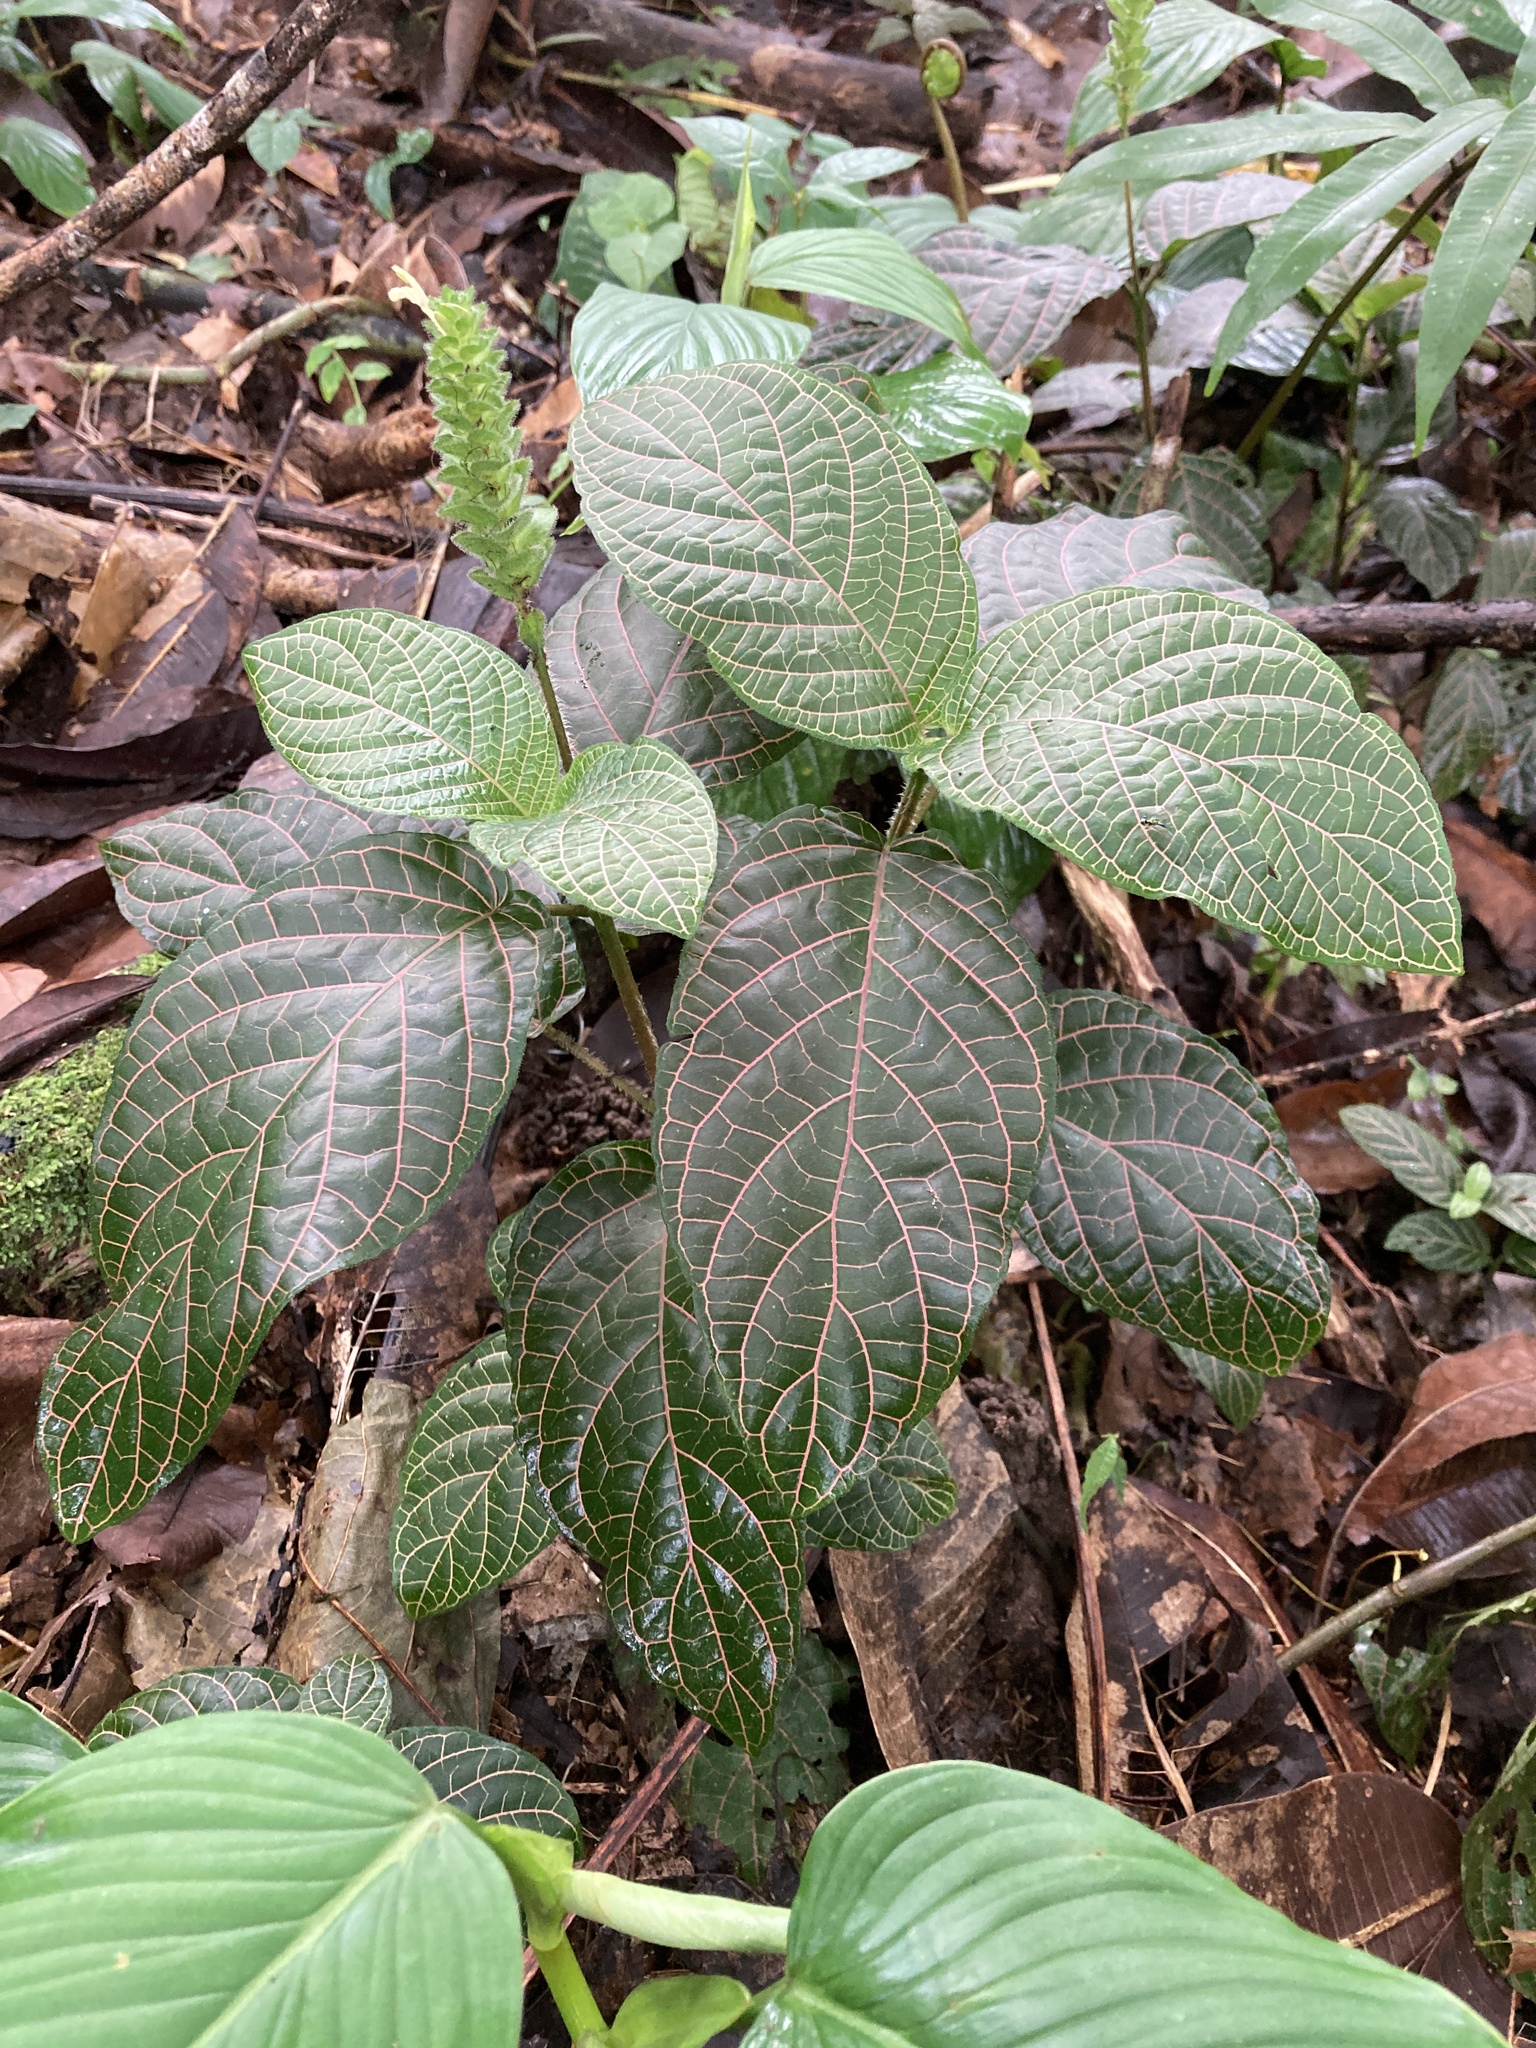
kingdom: Plantae
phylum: Tracheophyta
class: Magnoliopsida
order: Lamiales
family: Acanthaceae
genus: Fittonia
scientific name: Fittonia albivenis
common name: Mosaic-plant
